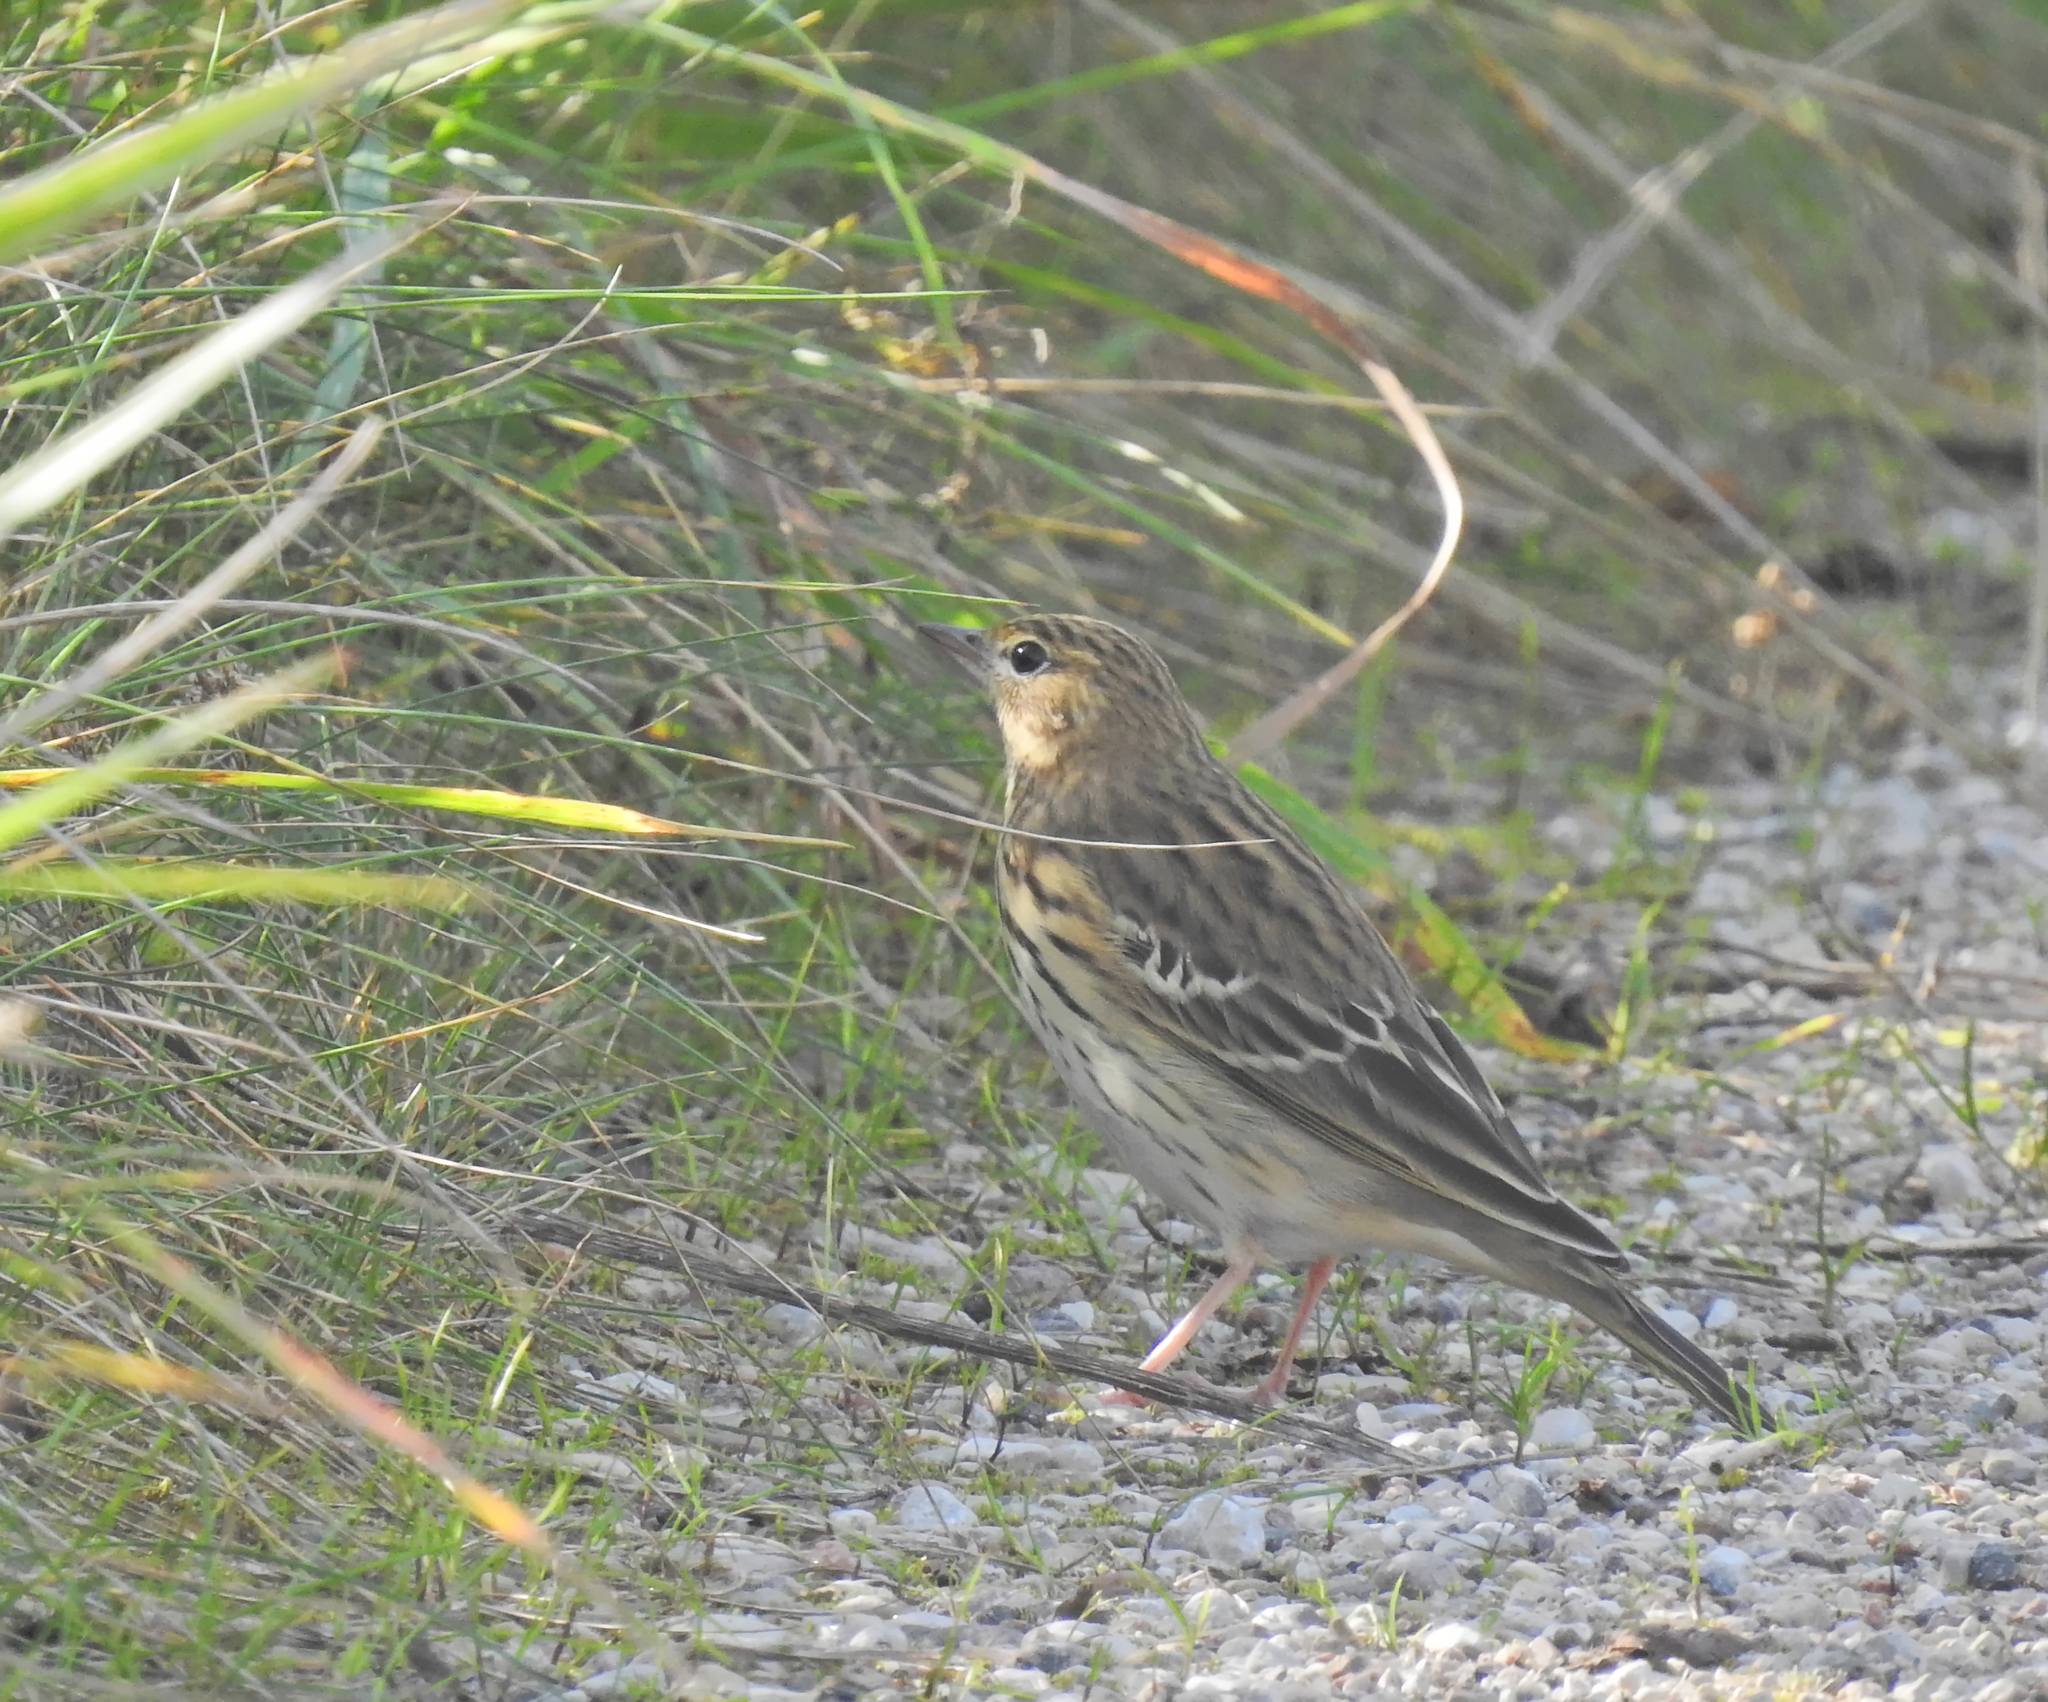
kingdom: Animalia
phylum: Chordata
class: Aves
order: Passeriformes
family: Motacillidae
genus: Anthus
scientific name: Anthus trivialis
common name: Tree pipit
